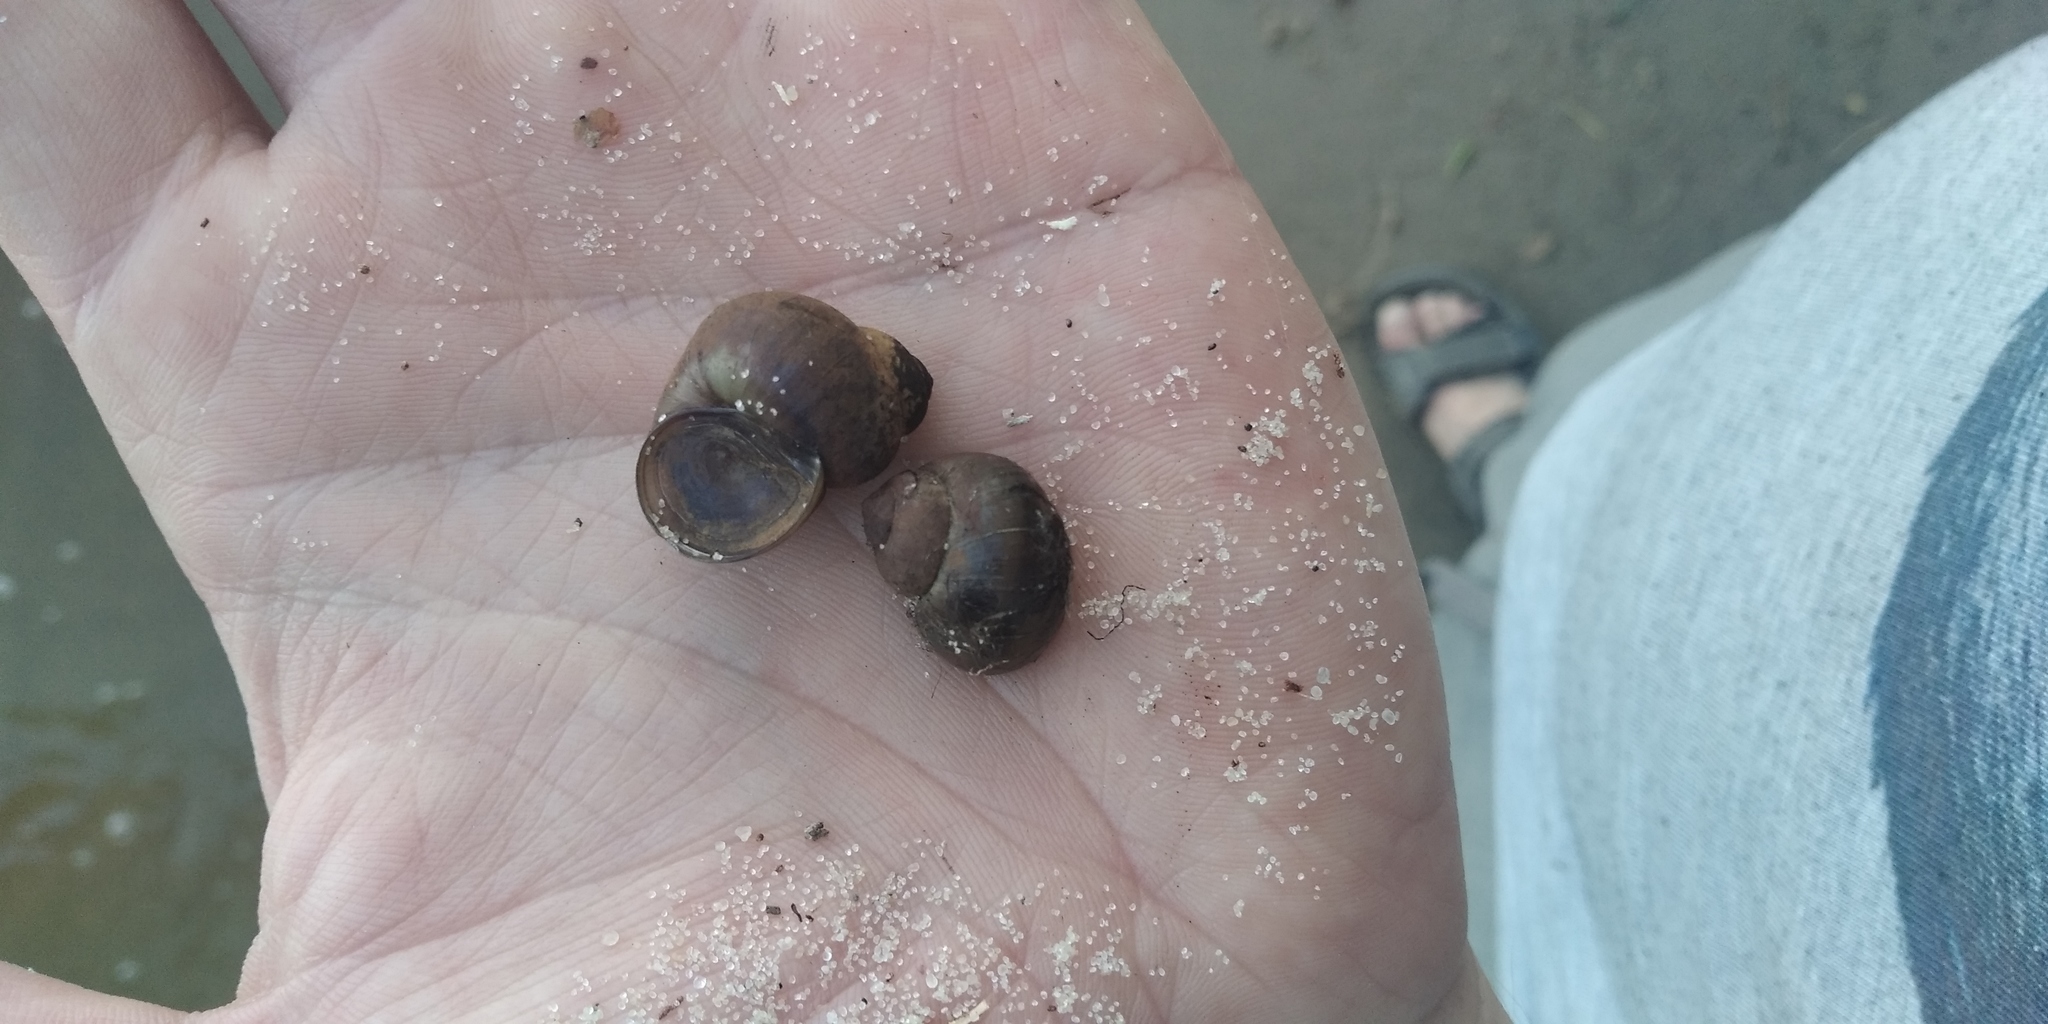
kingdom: Animalia
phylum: Mollusca
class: Gastropoda
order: Architaenioglossa
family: Viviparidae
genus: Viviparus
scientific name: Viviparus viviparus
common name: River snail
